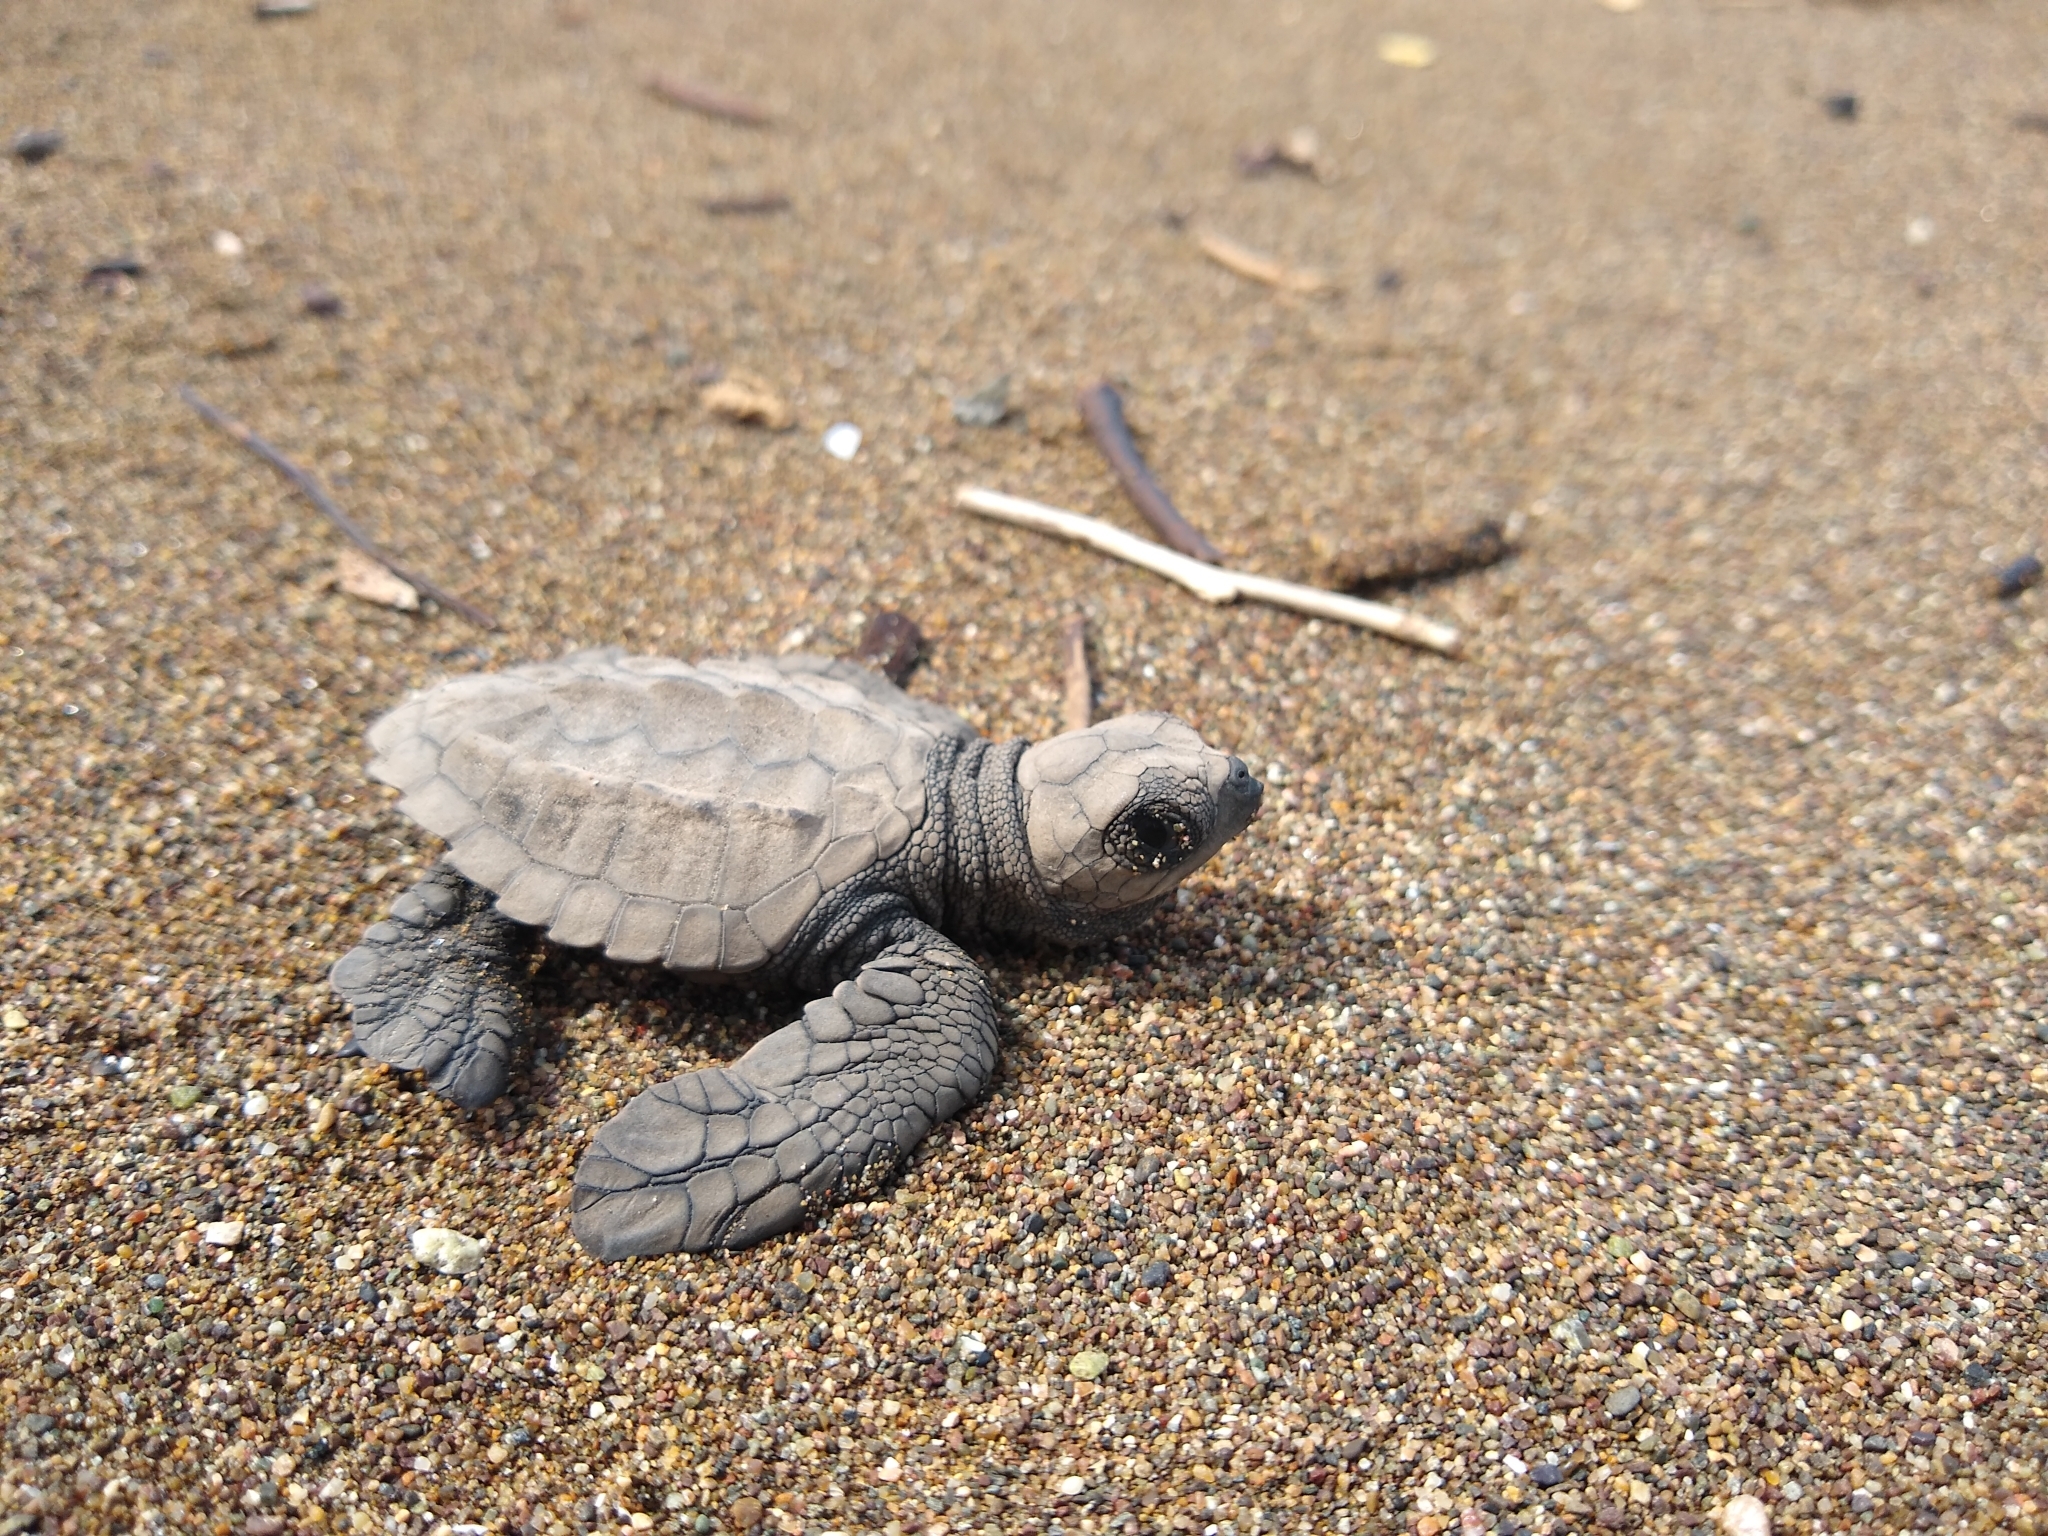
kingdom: Animalia
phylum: Chordata
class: Testudines
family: Cheloniidae
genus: Lepidochelys
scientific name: Lepidochelys olivacea
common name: Olive ridley
